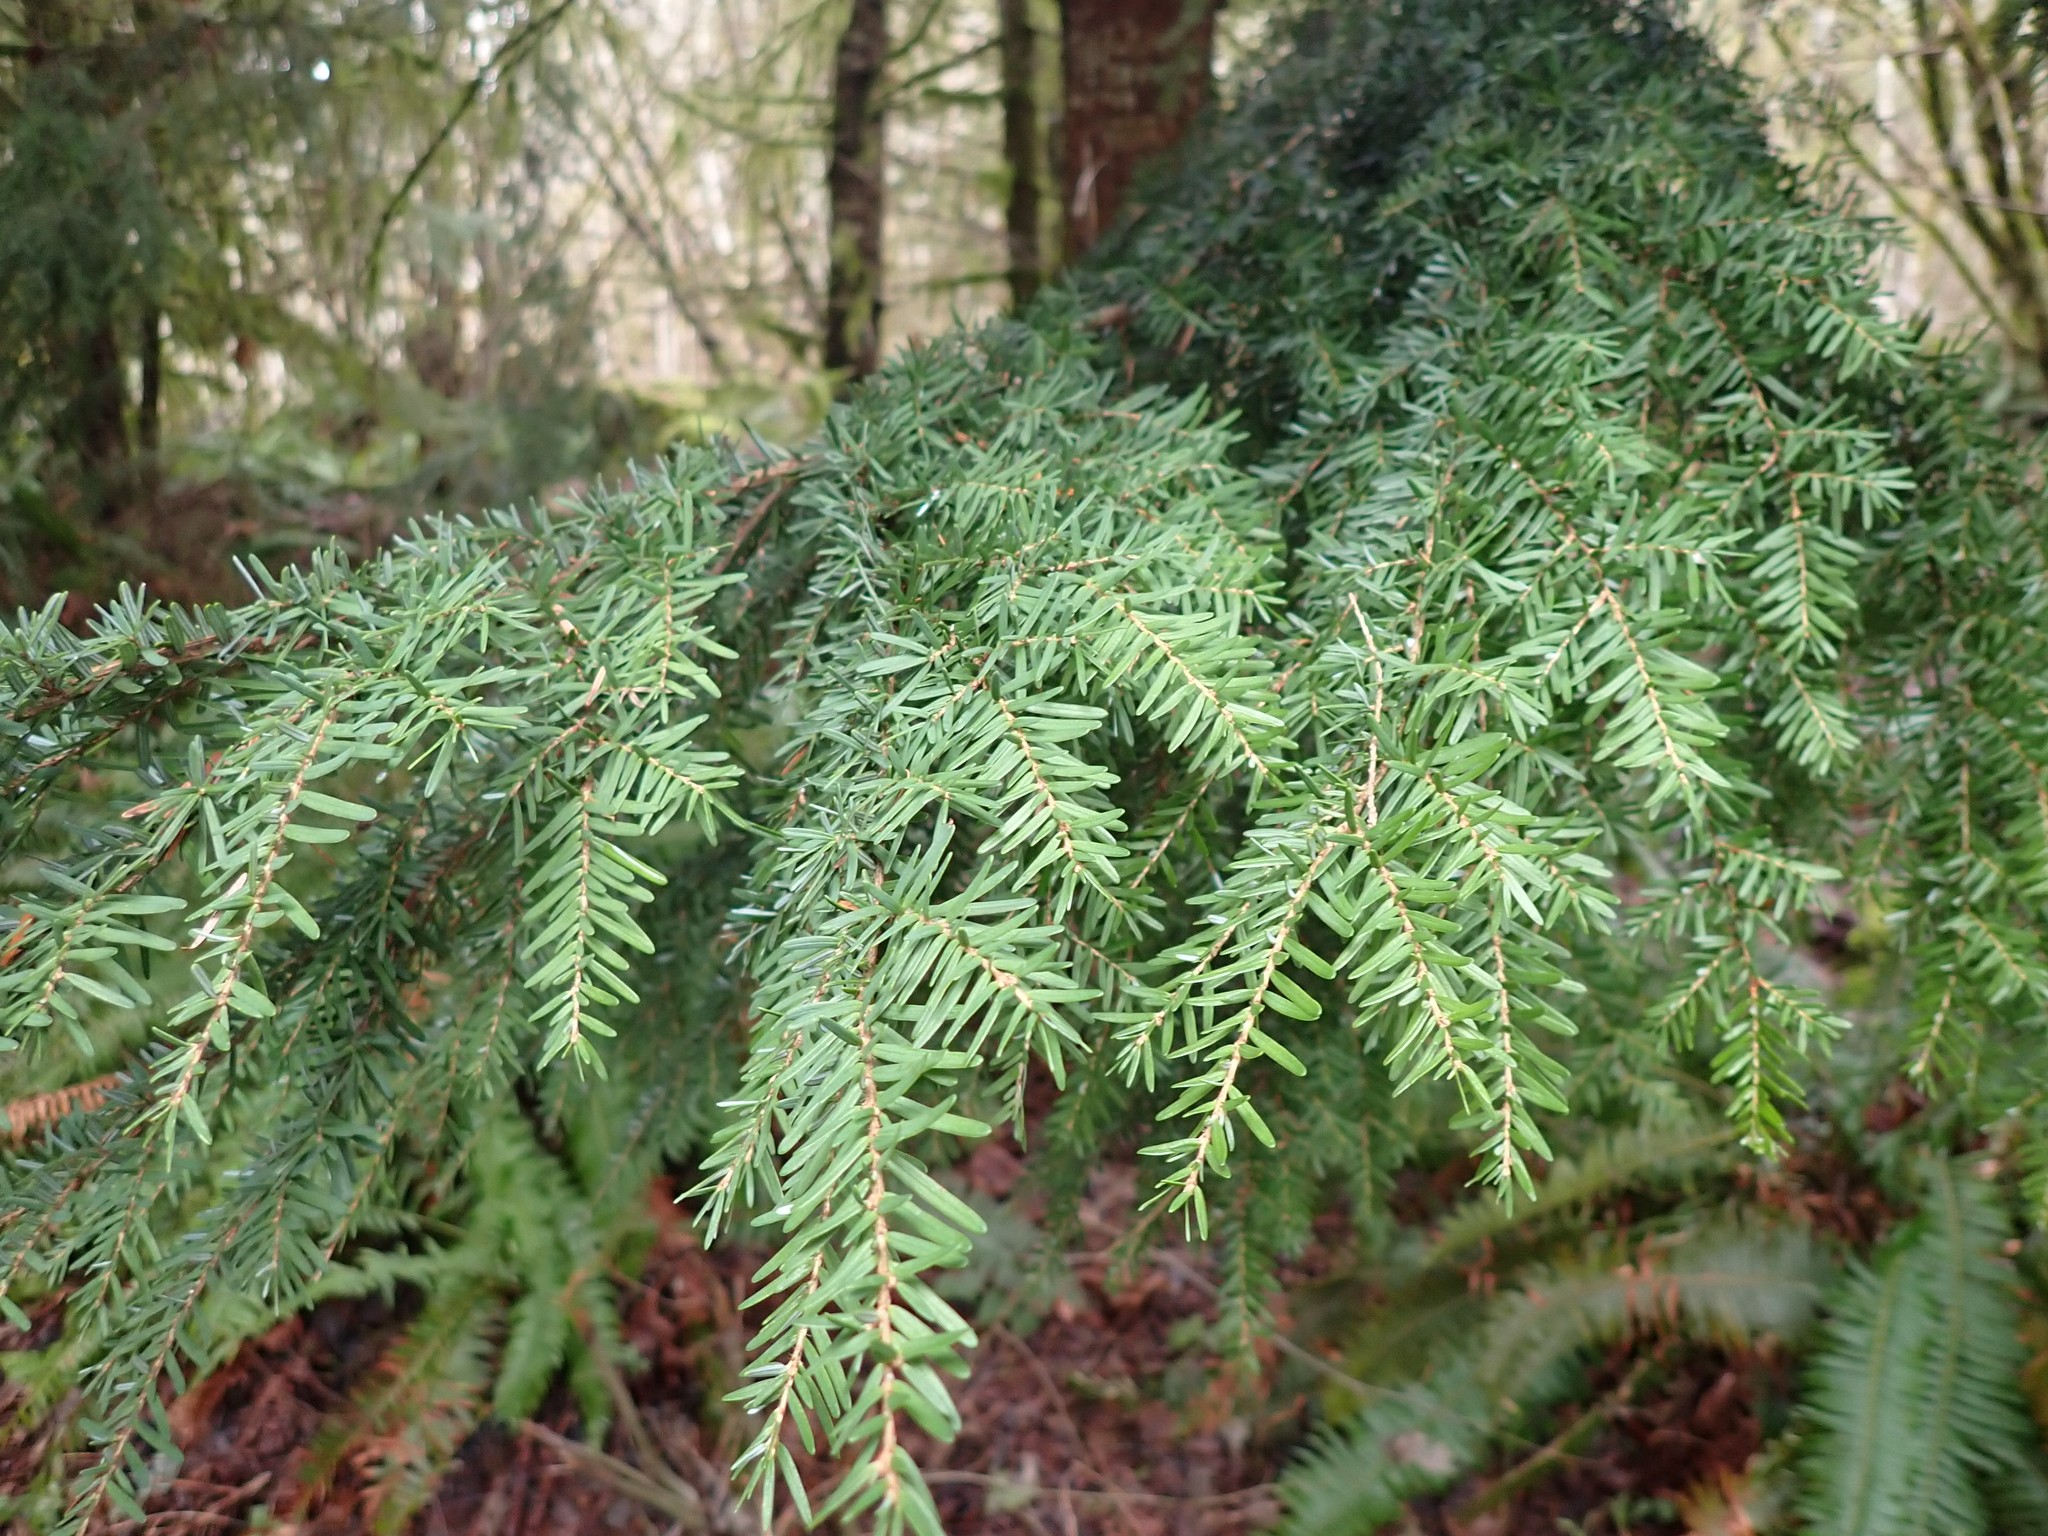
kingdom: Plantae
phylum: Tracheophyta
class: Pinopsida
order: Pinales
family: Pinaceae
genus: Tsuga
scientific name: Tsuga heterophylla
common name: Western hemlock
